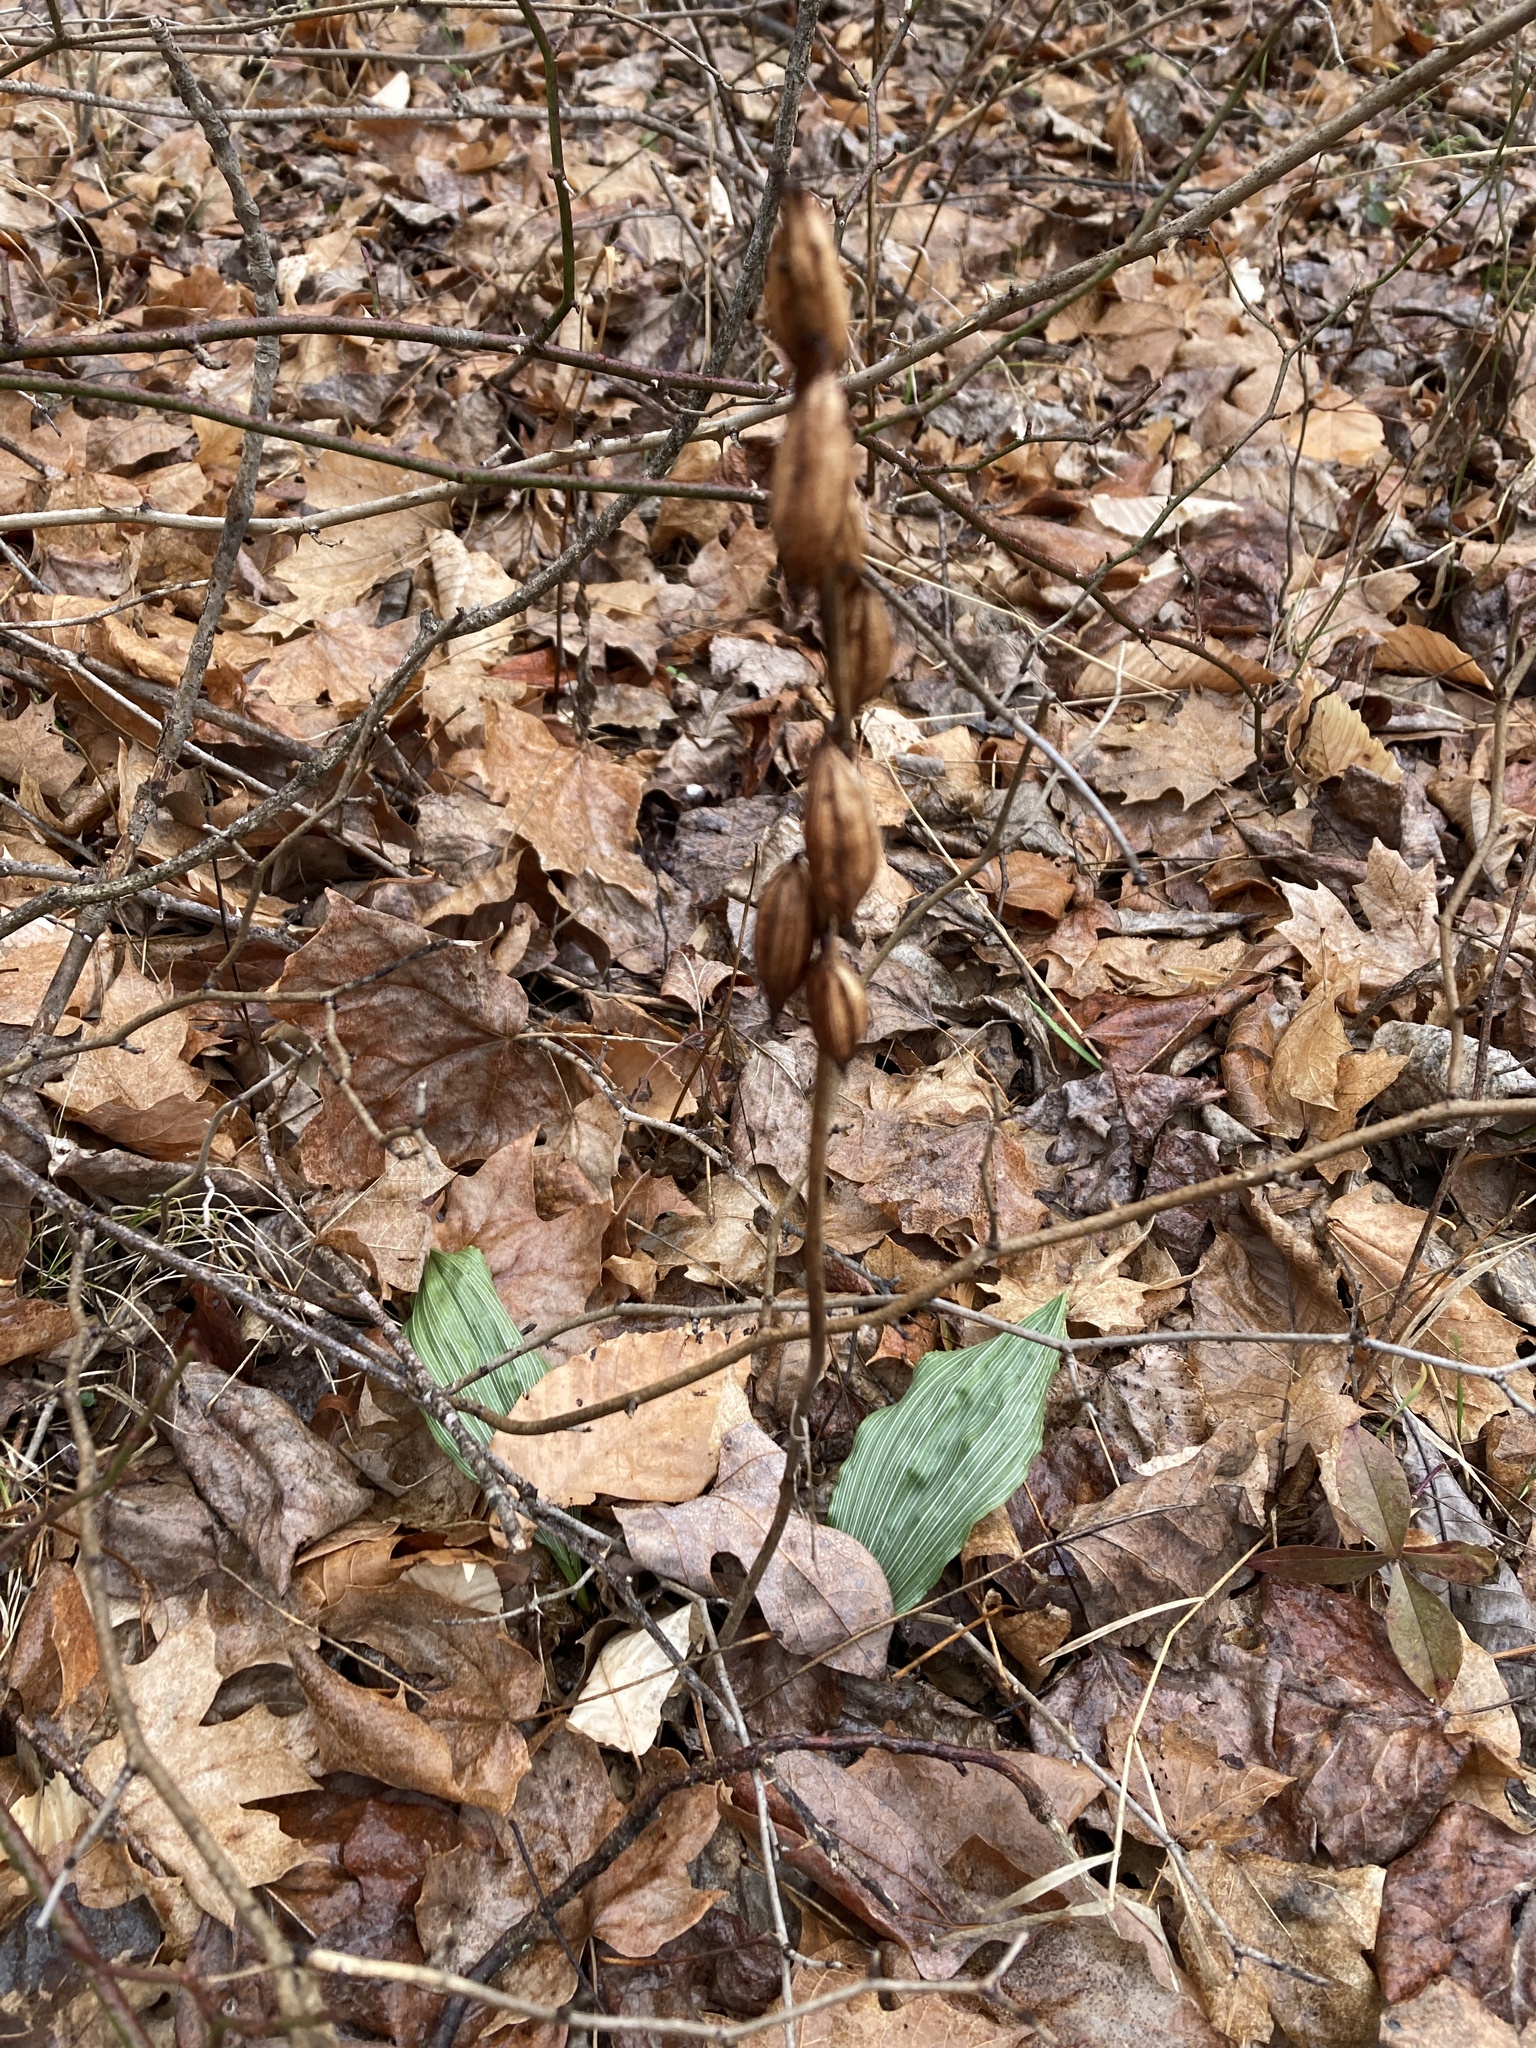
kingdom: Plantae
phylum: Tracheophyta
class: Liliopsida
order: Asparagales
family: Orchidaceae
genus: Aplectrum
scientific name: Aplectrum hyemale
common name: Adam-and-eve
